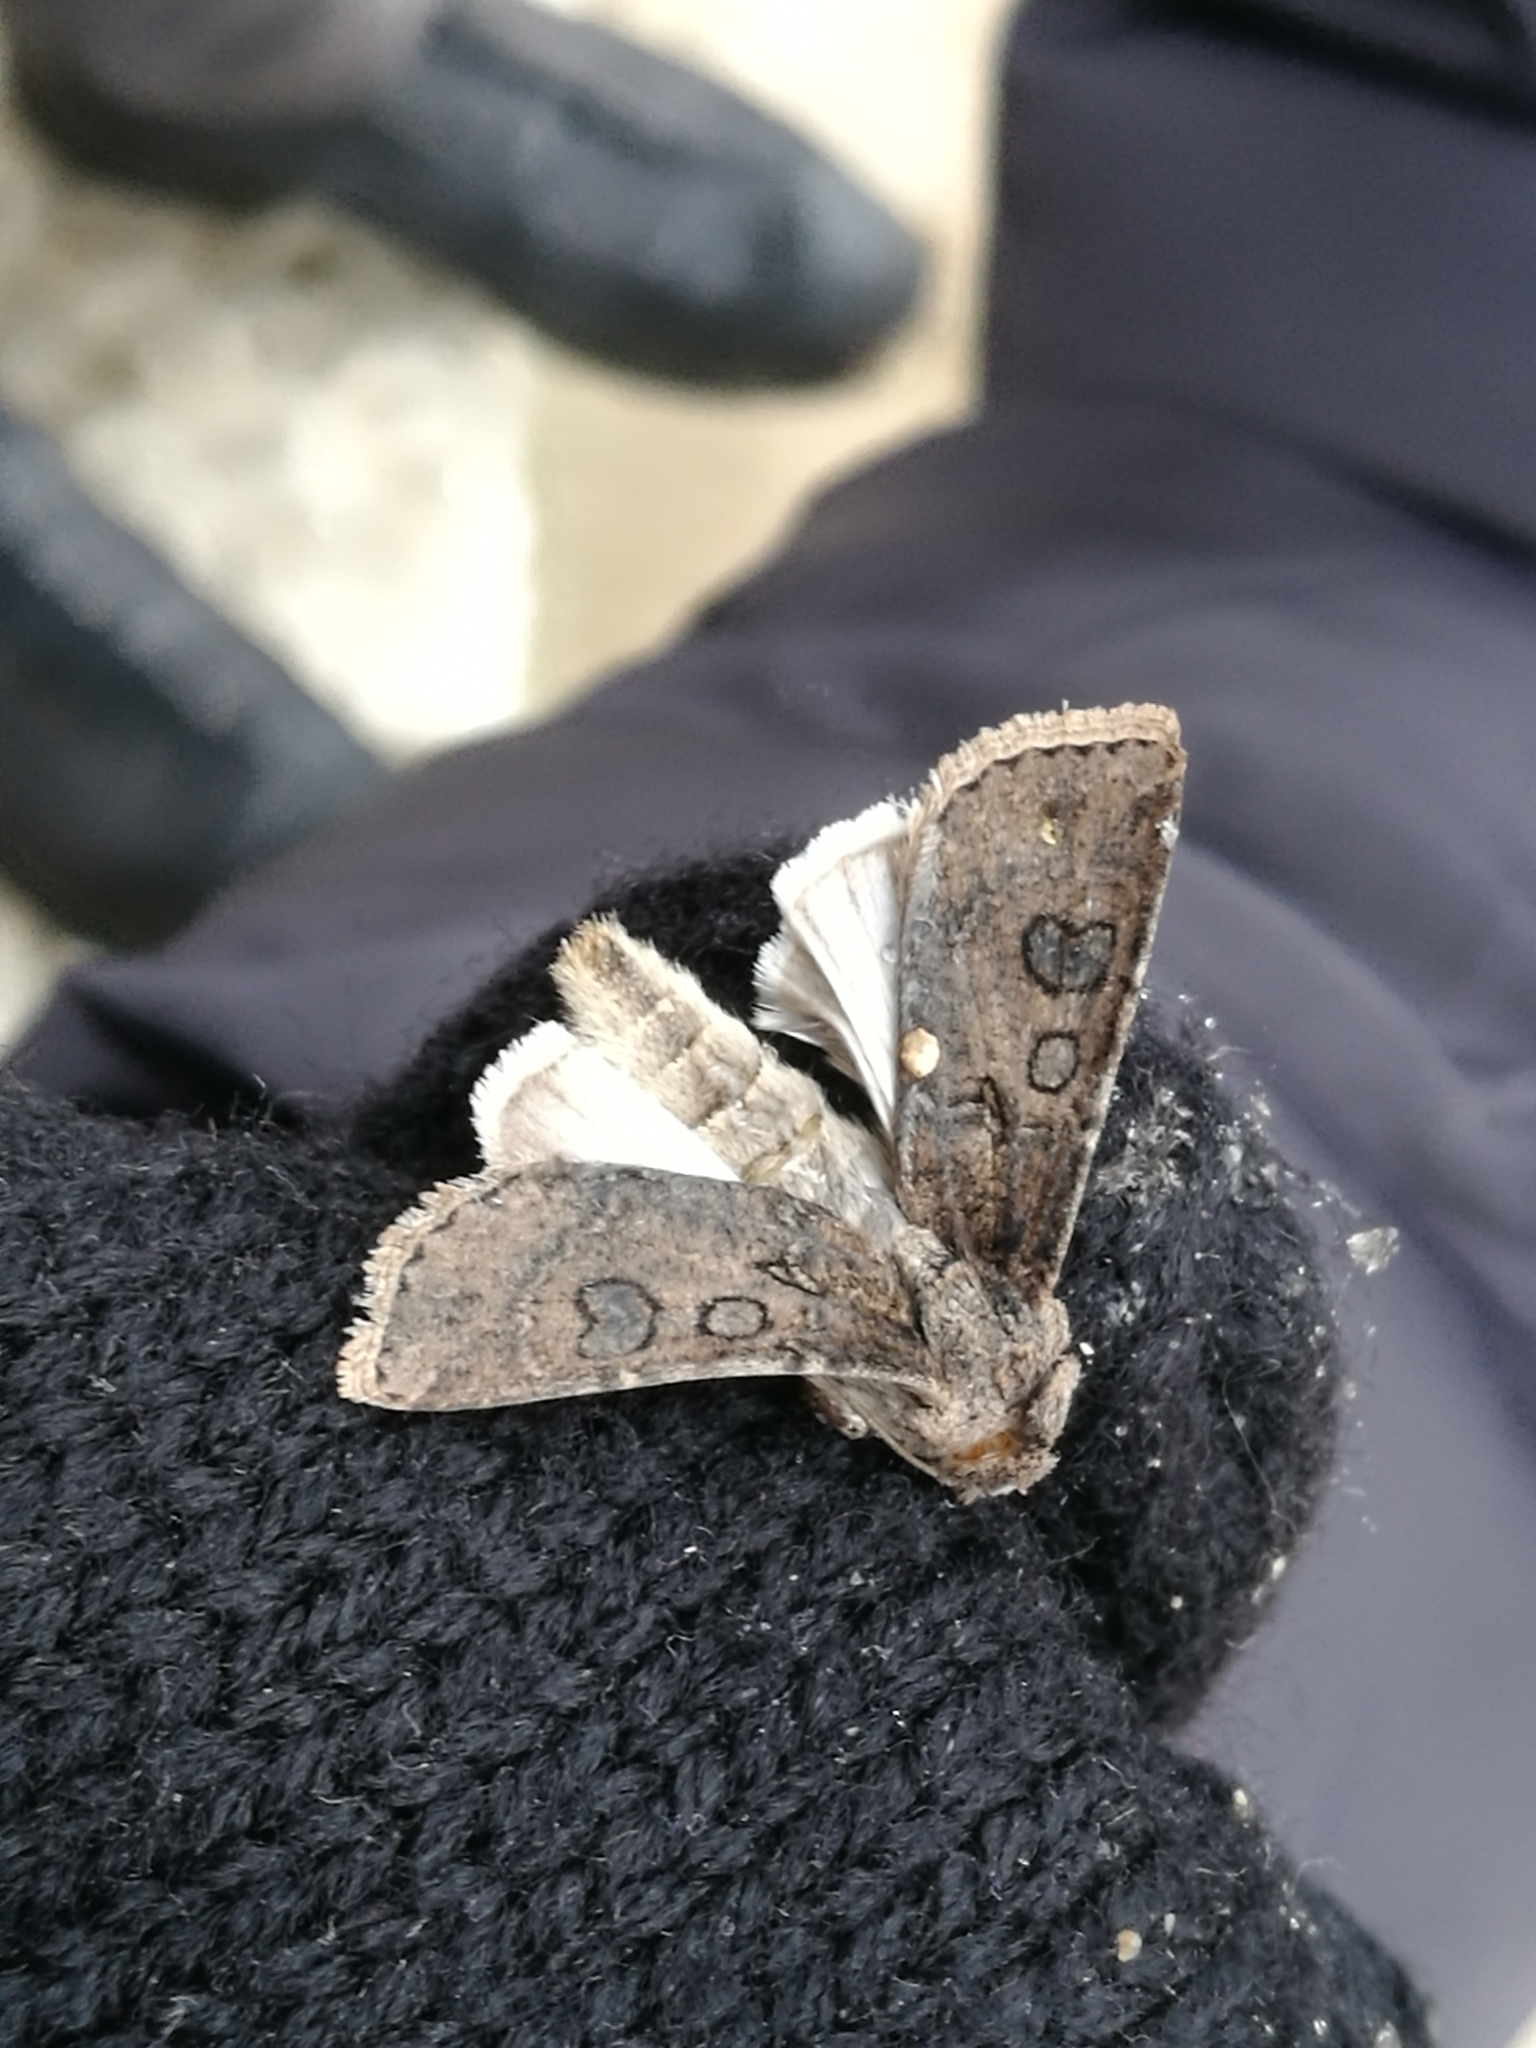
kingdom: Animalia
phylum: Arthropoda
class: Insecta
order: Lepidoptera
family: Noctuidae
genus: Agrotis
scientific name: Agrotis segetum
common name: Turnip moth
